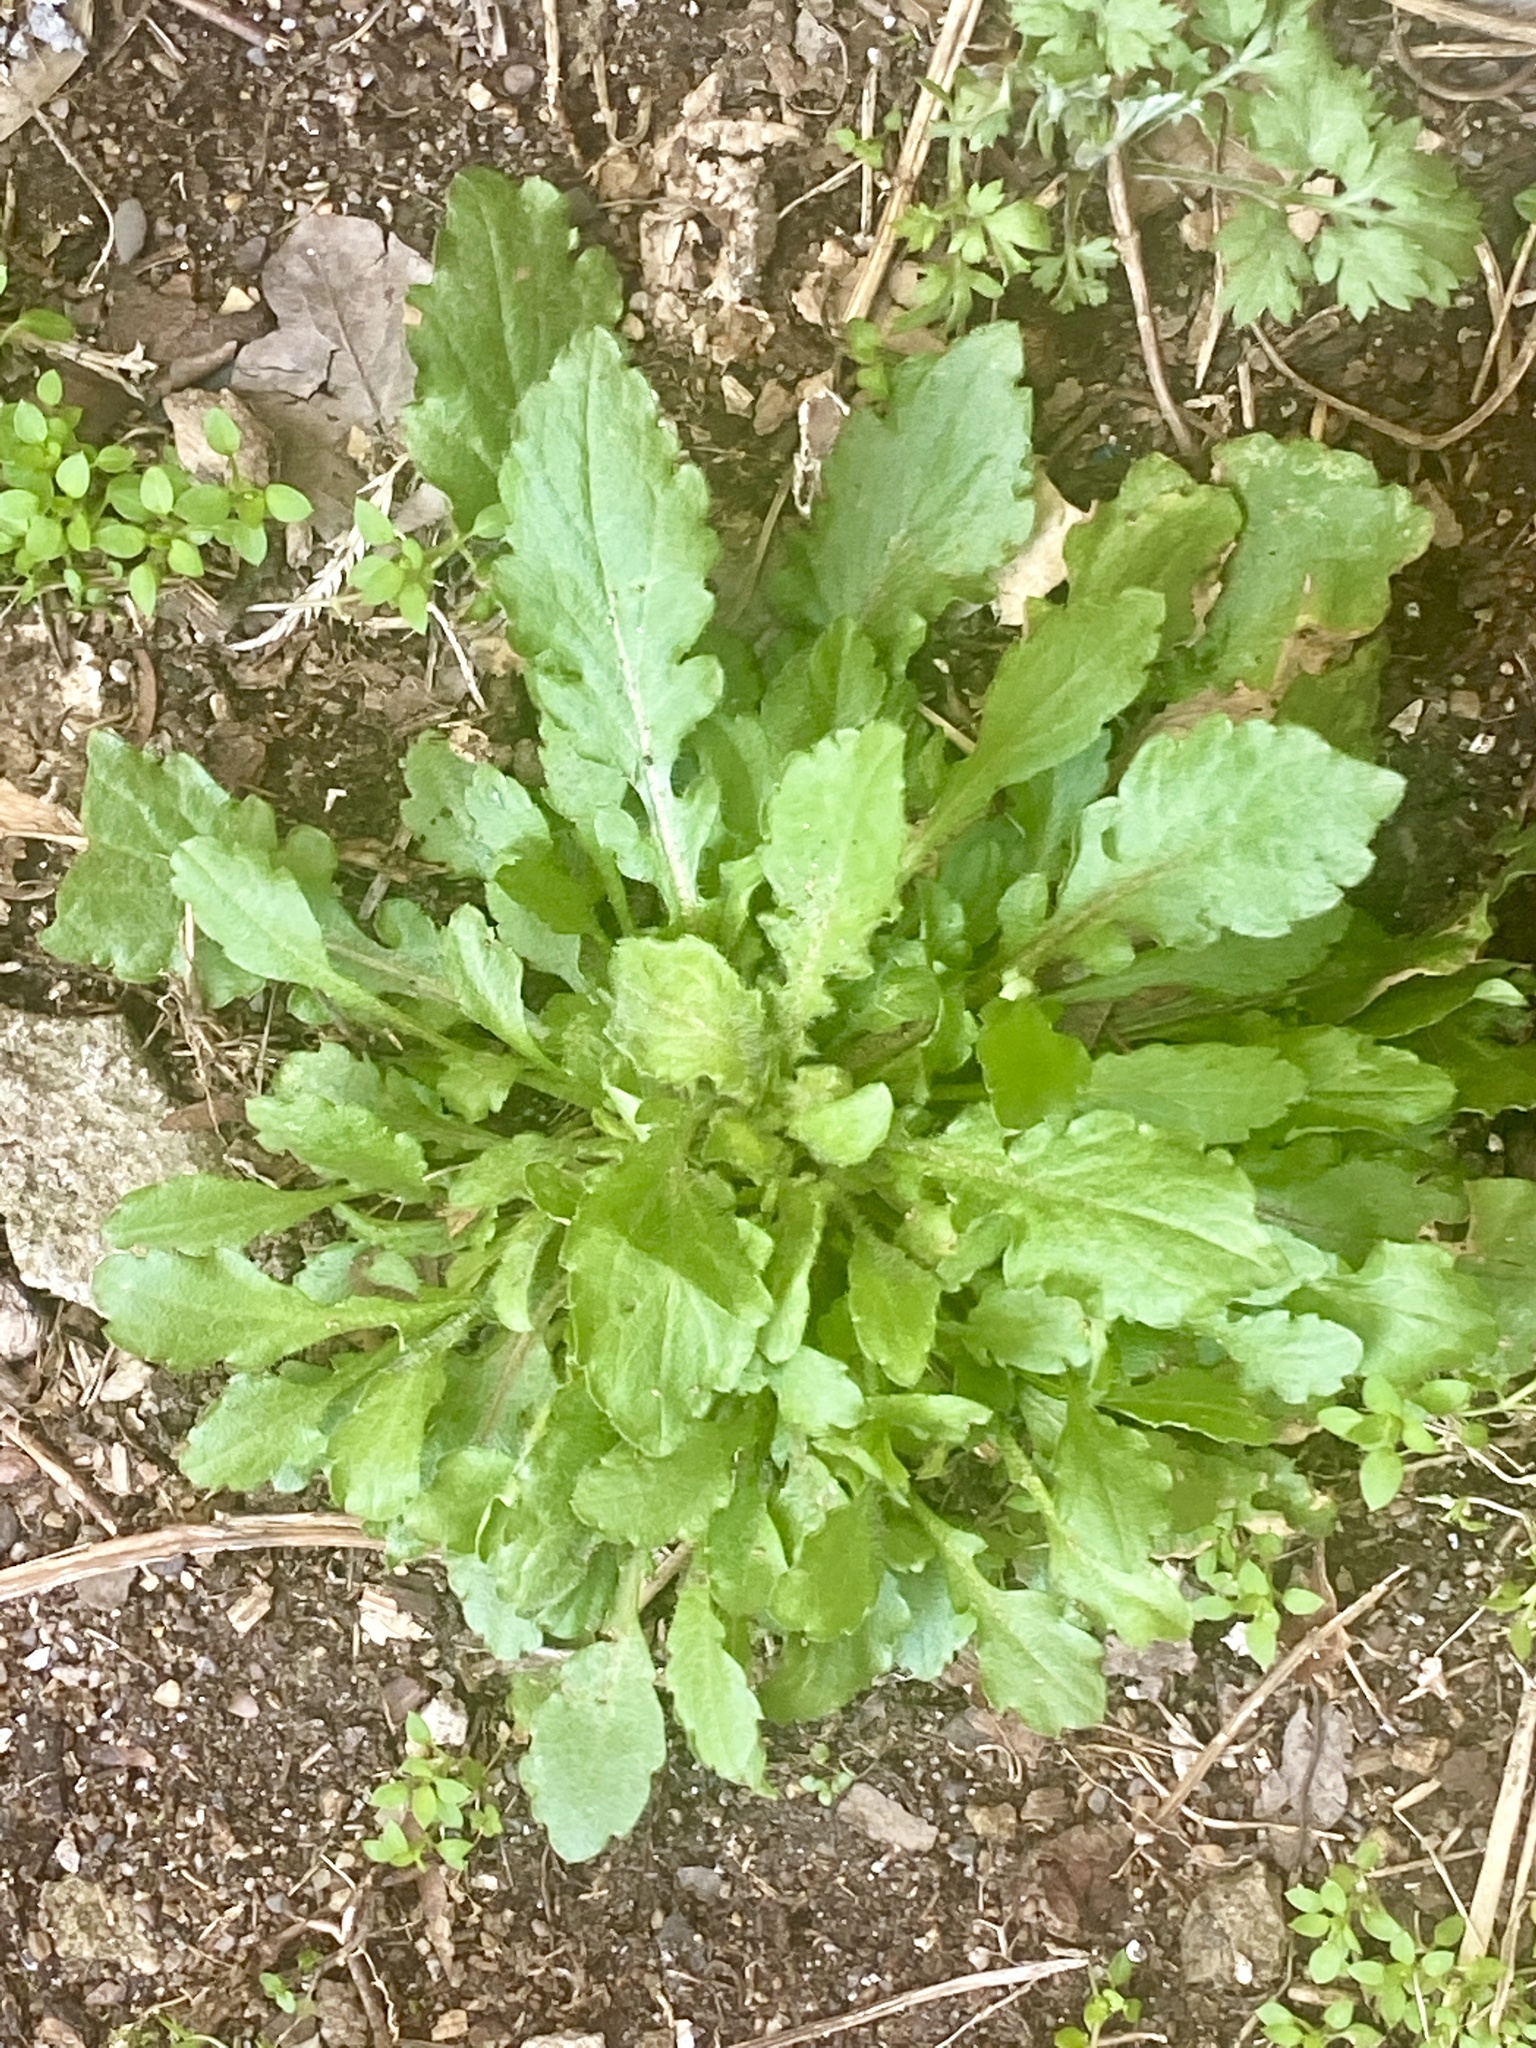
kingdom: Plantae
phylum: Tracheophyta
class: Magnoliopsida
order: Asterales
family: Asteraceae
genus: Erigeron
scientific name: Erigeron canadensis
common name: Canadian fleabane
